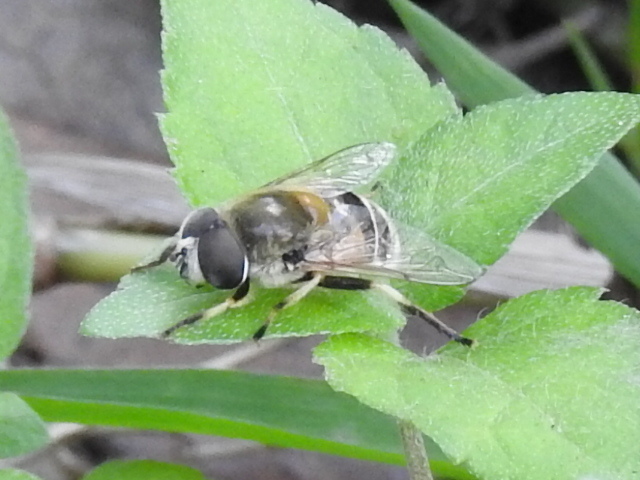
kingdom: Animalia
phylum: Arthropoda
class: Insecta
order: Diptera
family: Syrphidae
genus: Eristalis
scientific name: Eristalis stipator
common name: Yellow-shouldered drone fly
